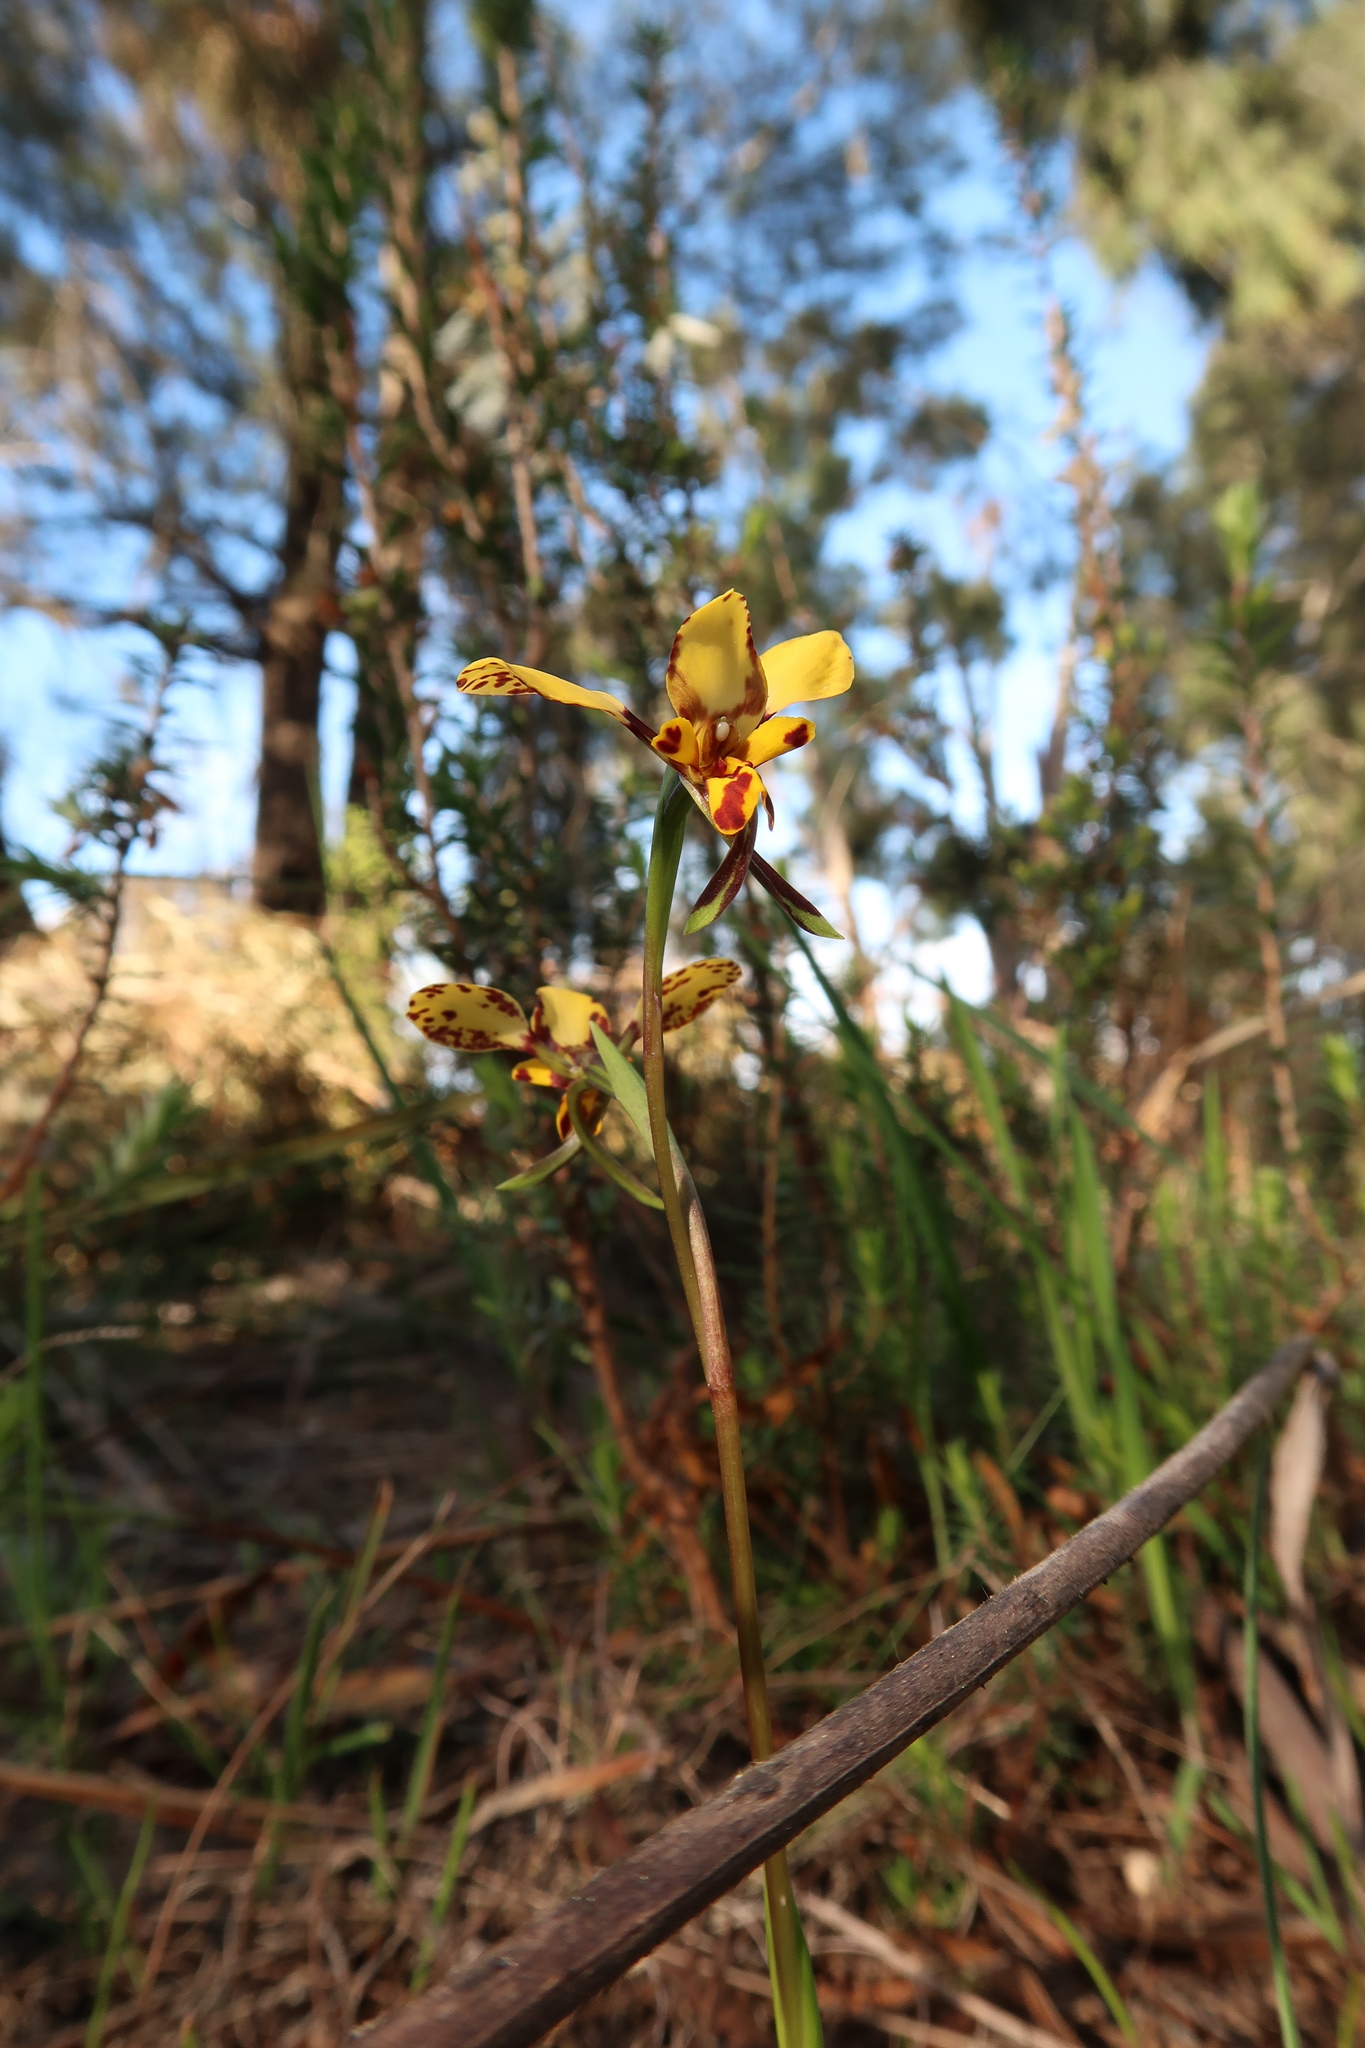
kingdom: Plantae
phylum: Tracheophyta
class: Liliopsida
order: Asparagales
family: Orchidaceae
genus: Diuris
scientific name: Diuris pardina
